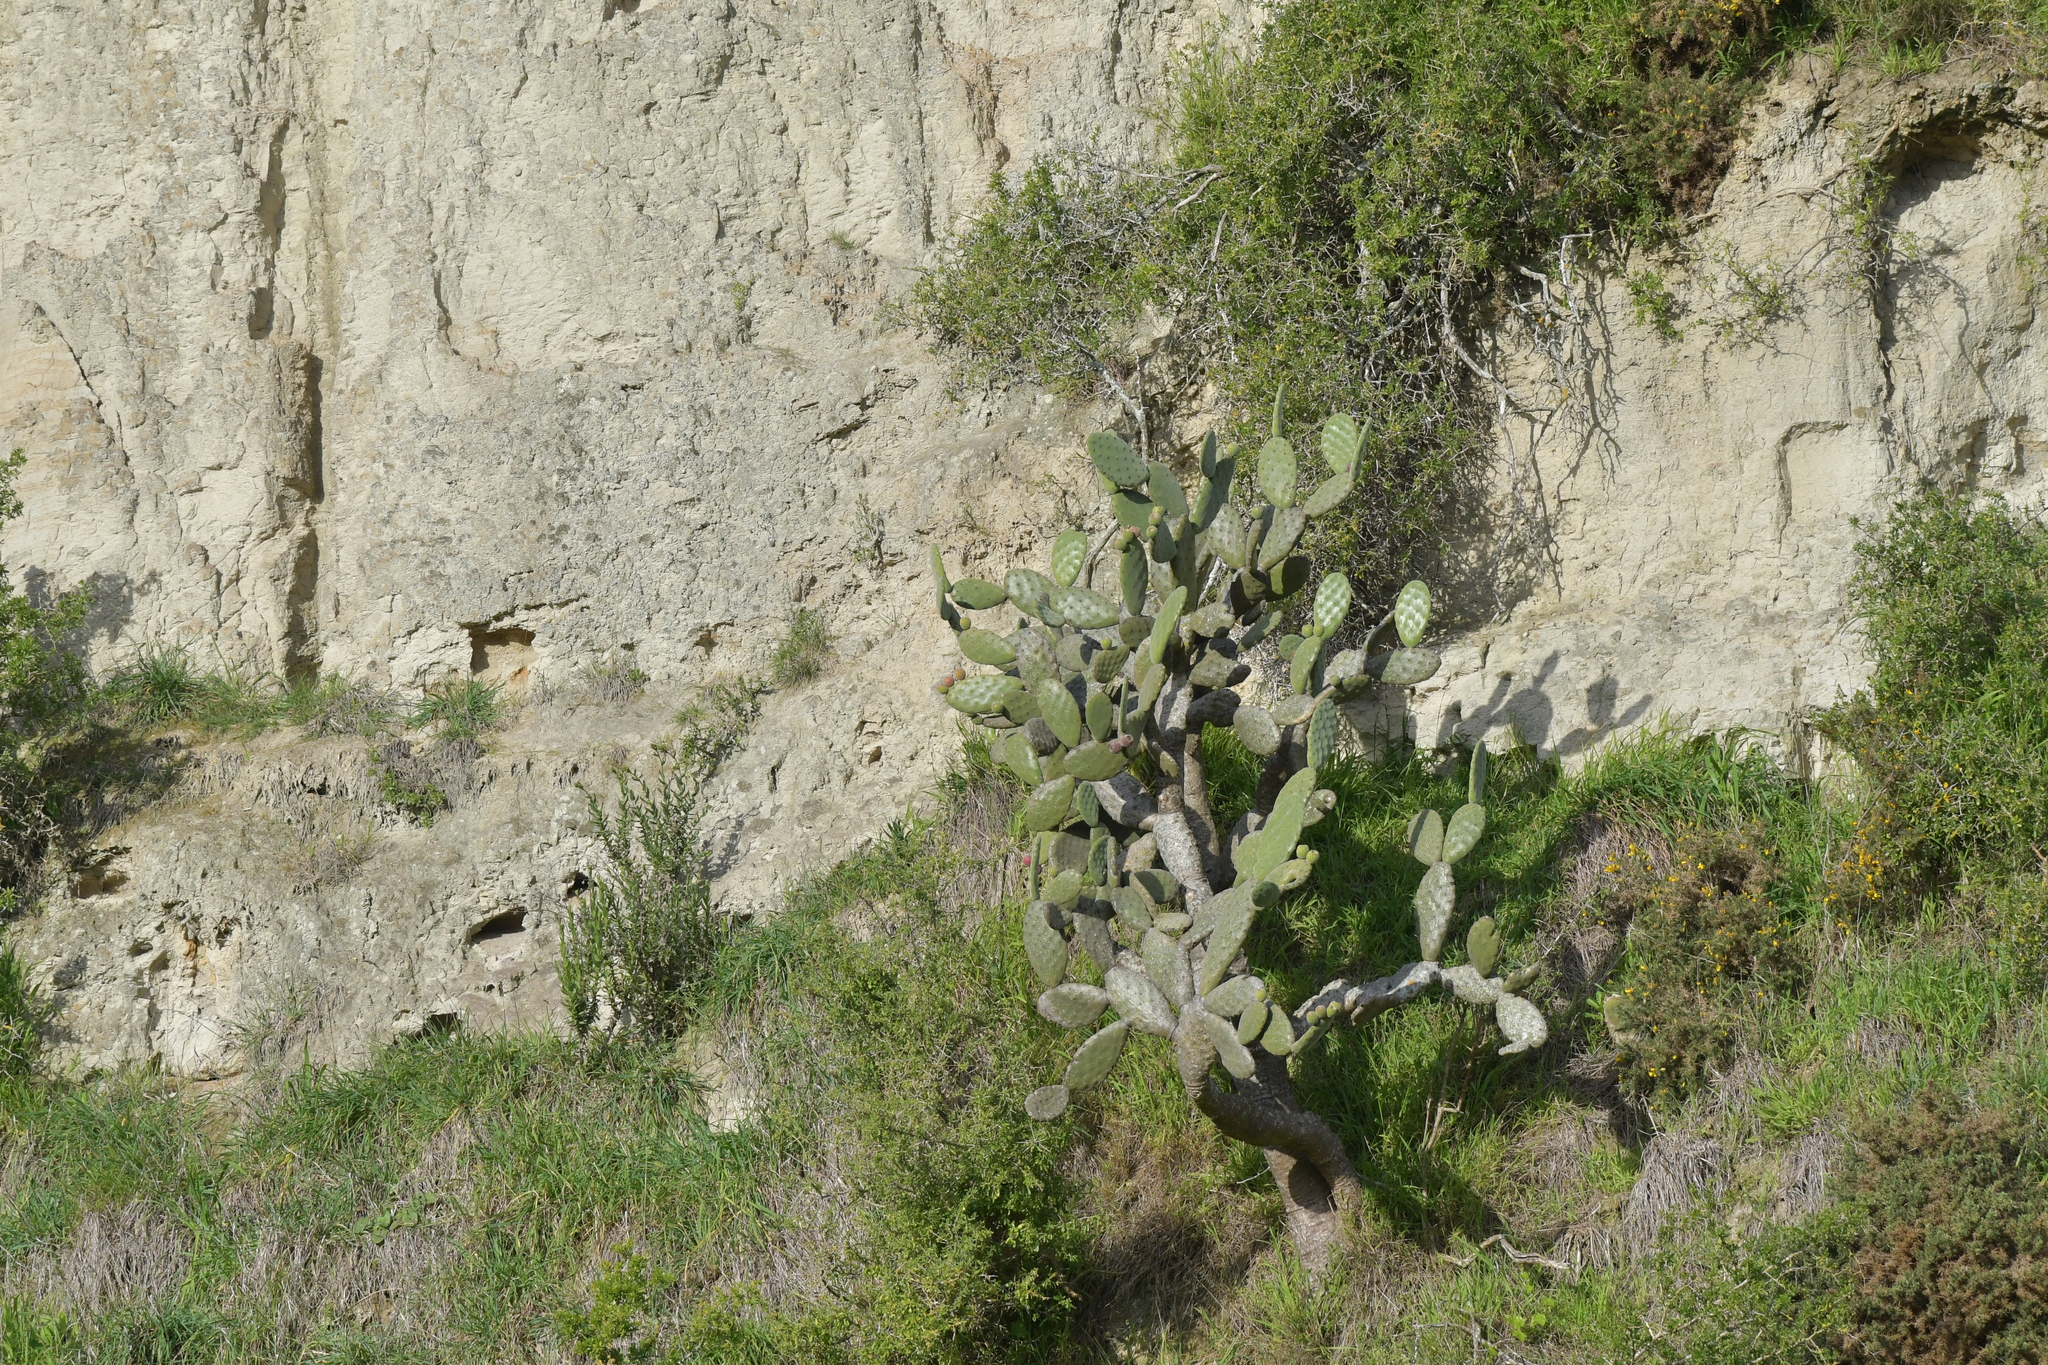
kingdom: Plantae
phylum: Tracheophyta
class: Magnoliopsida
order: Caryophyllales
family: Cactaceae
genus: Opuntia
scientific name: Opuntia tomentosa
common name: Woollyjoint pricklypear
